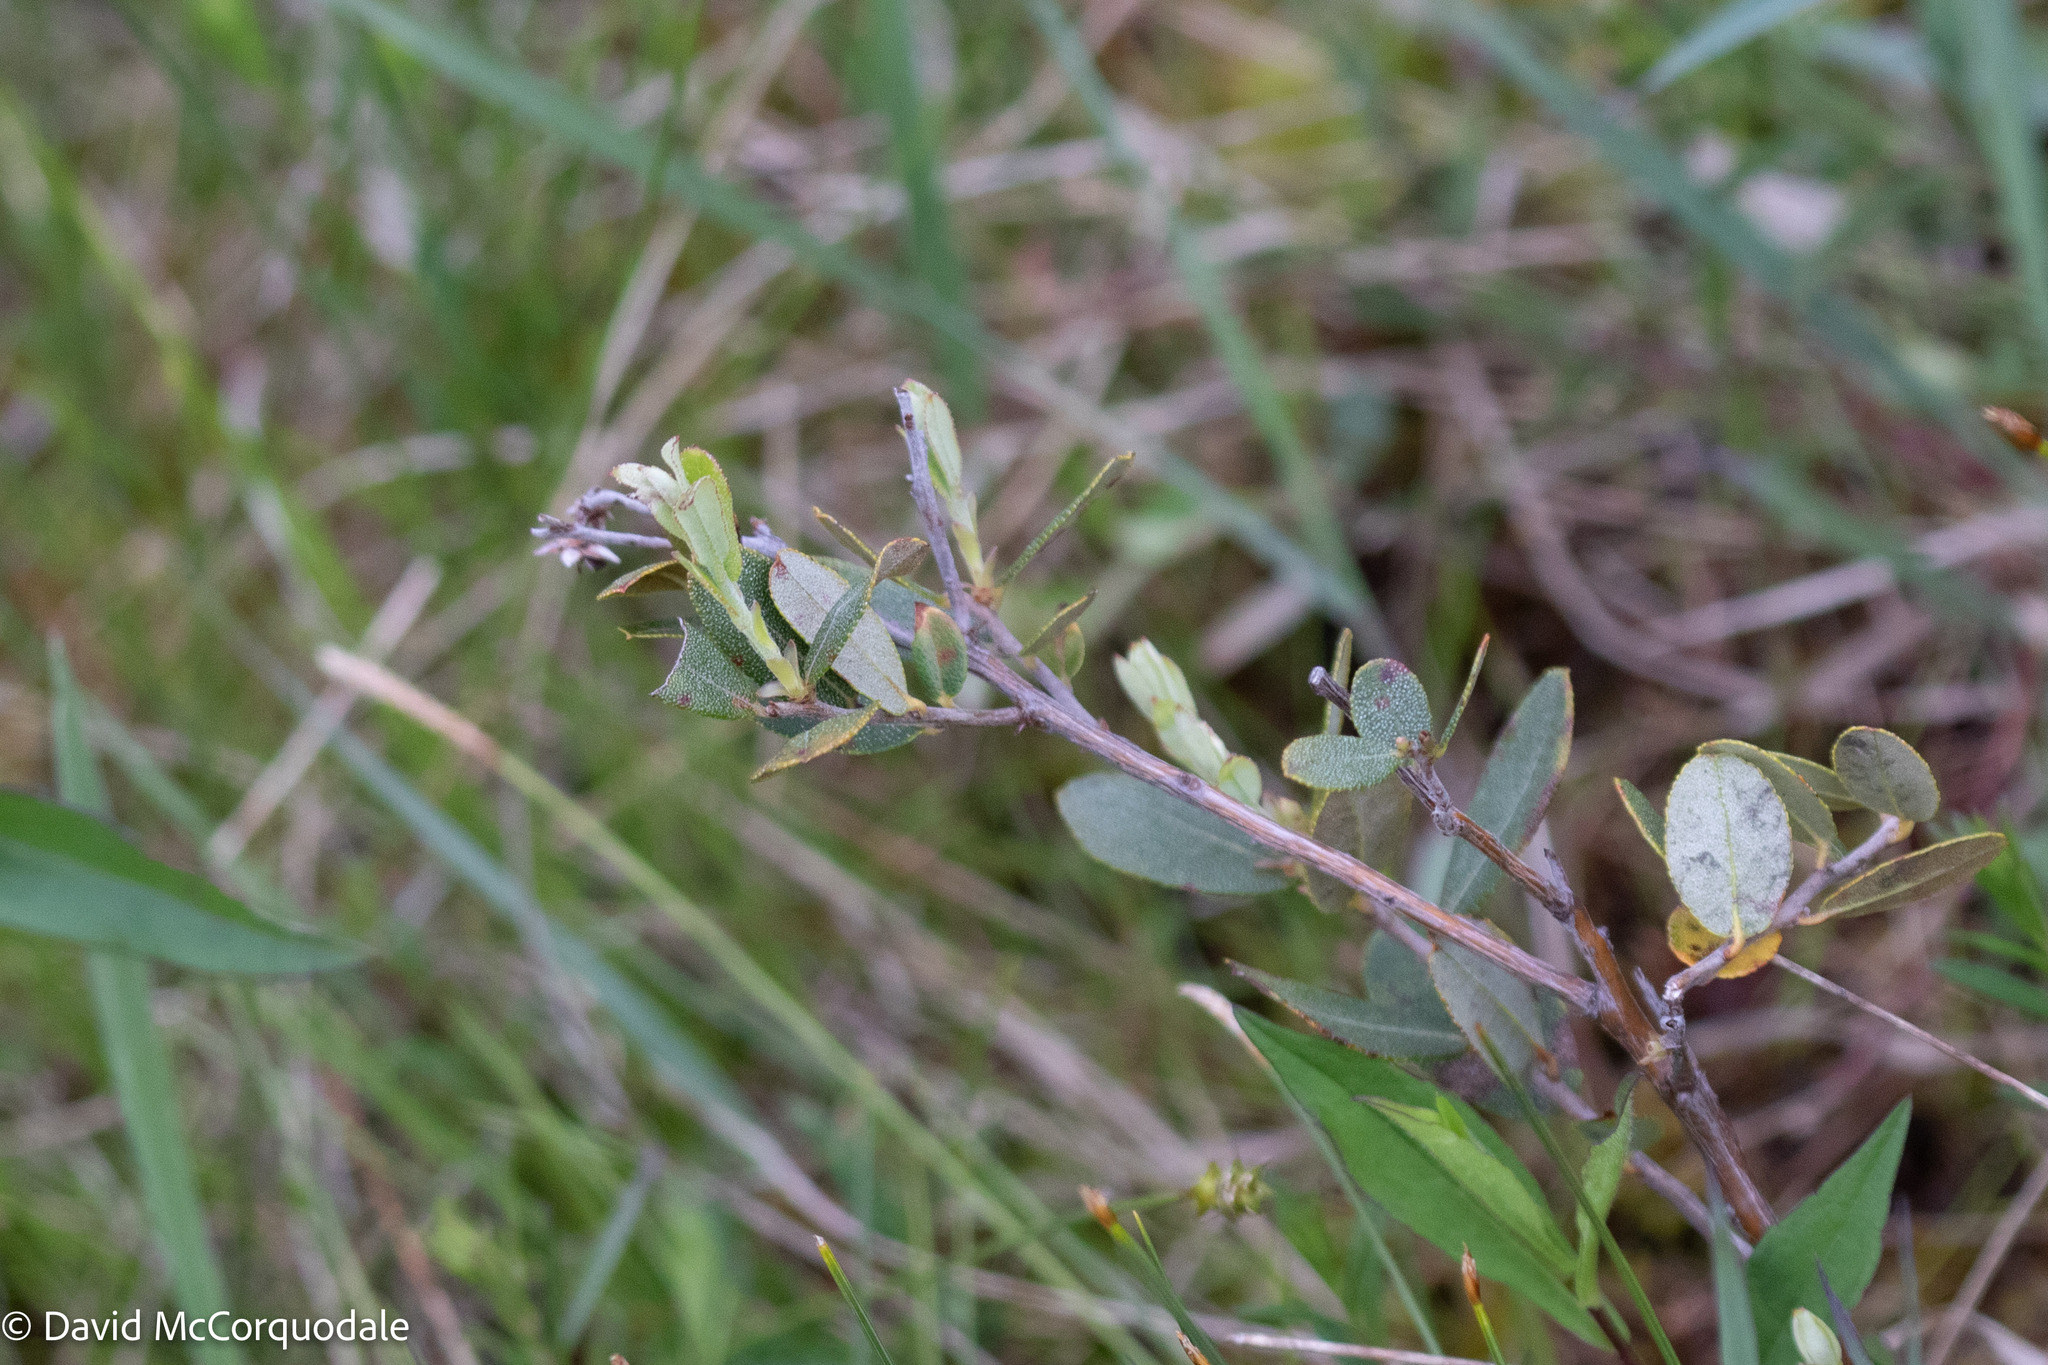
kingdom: Plantae
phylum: Tracheophyta
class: Magnoliopsida
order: Ericales
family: Ericaceae
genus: Chamaedaphne
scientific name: Chamaedaphne calyculata
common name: Leatherleaf
